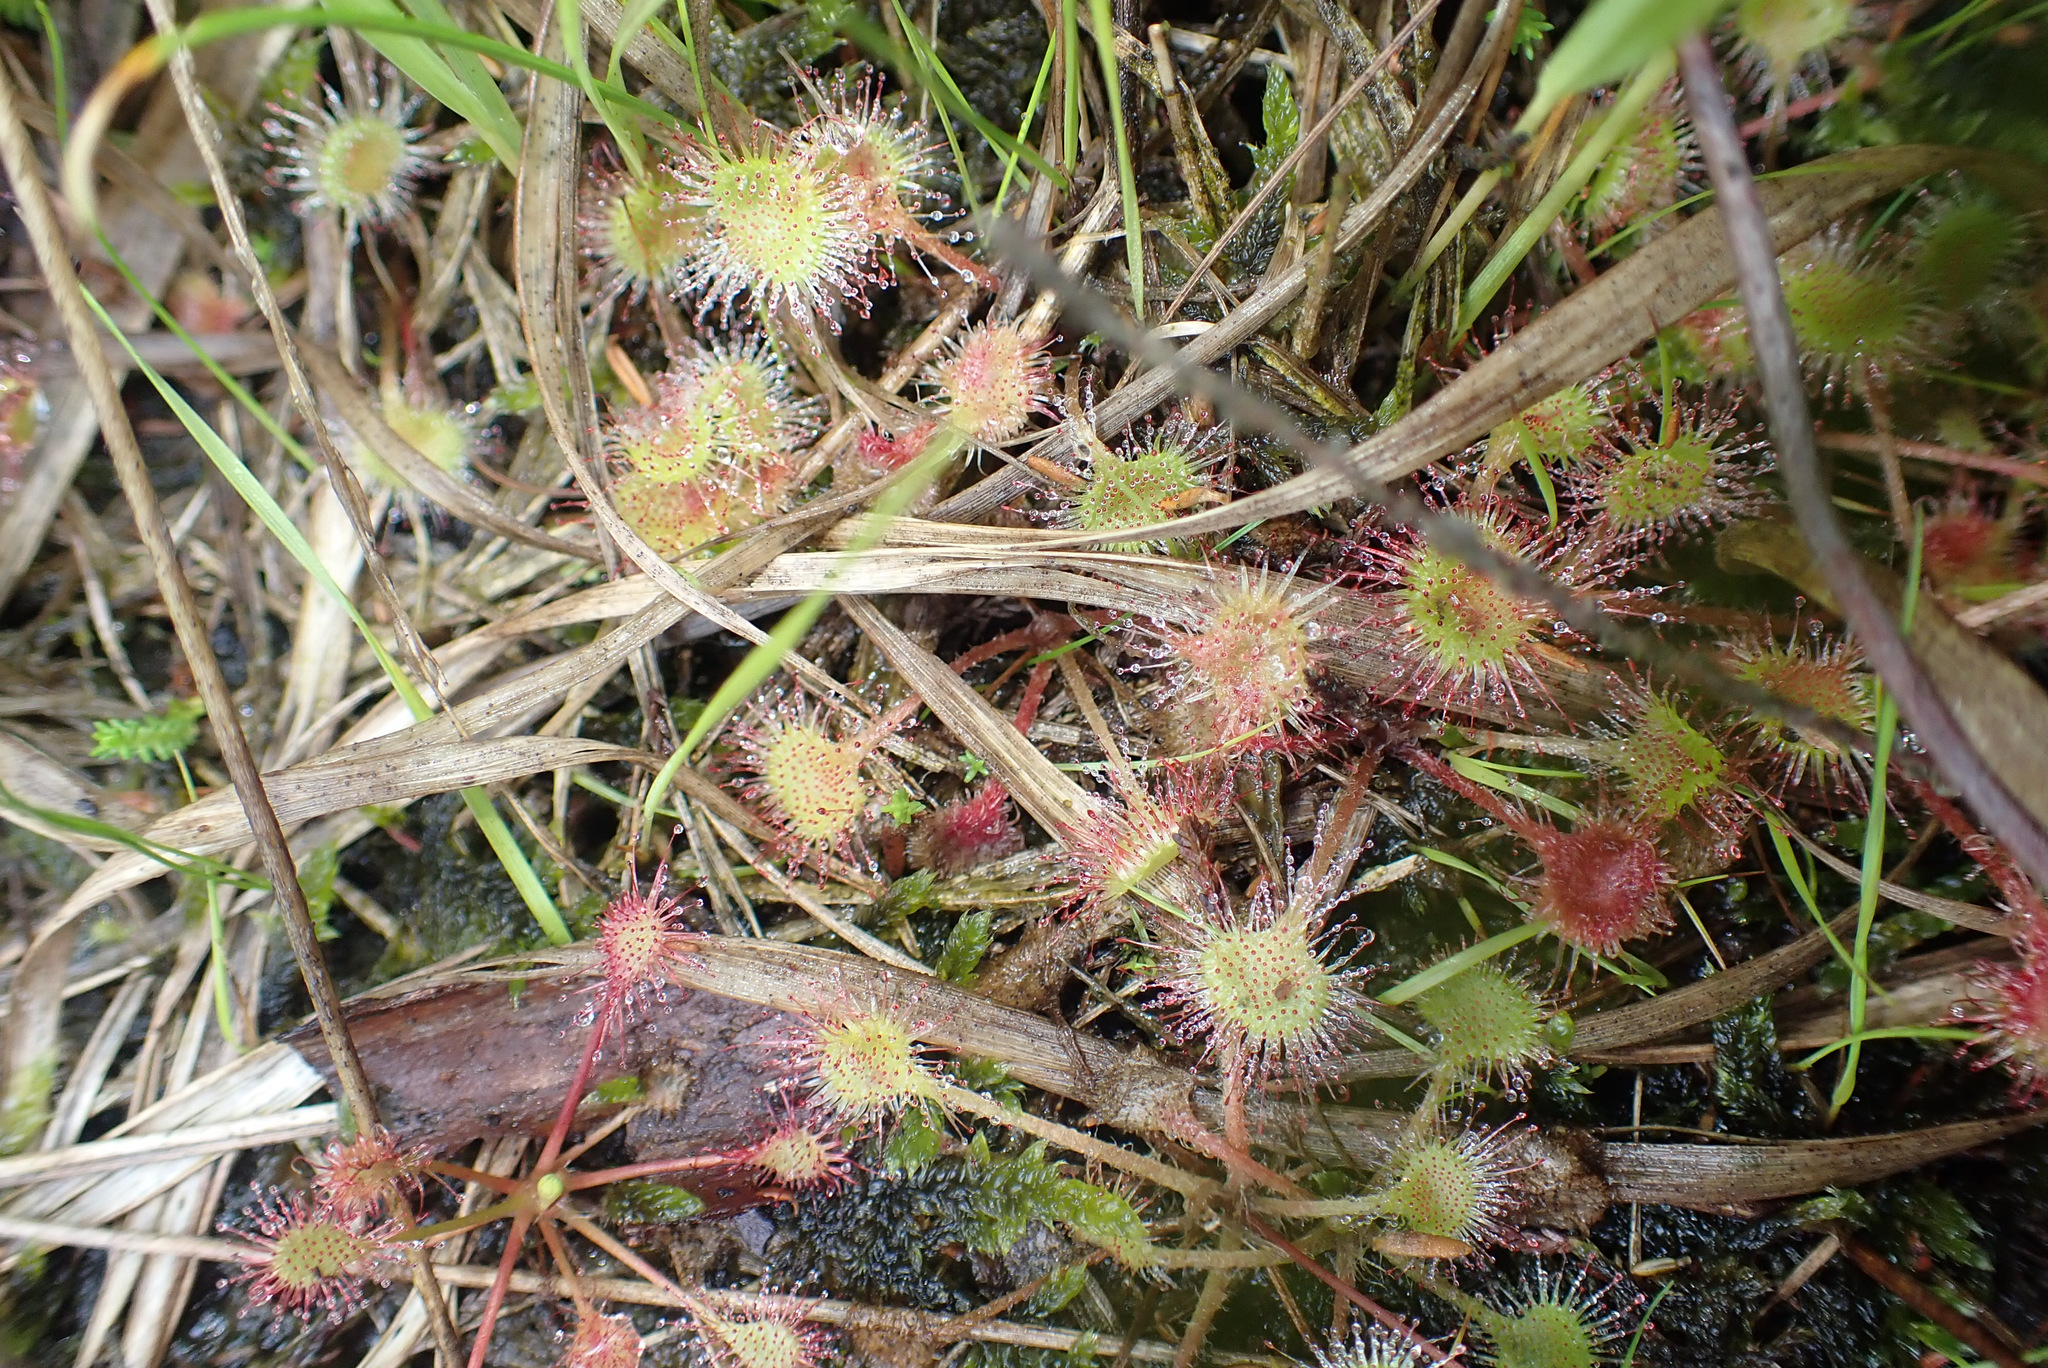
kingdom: Plantae
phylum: Tracheophyta
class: Magnoliopsida
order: Caryophyllales
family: Droseraceae
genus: Drosera
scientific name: Drosera rotundifolia
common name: Round-leaved sundew
